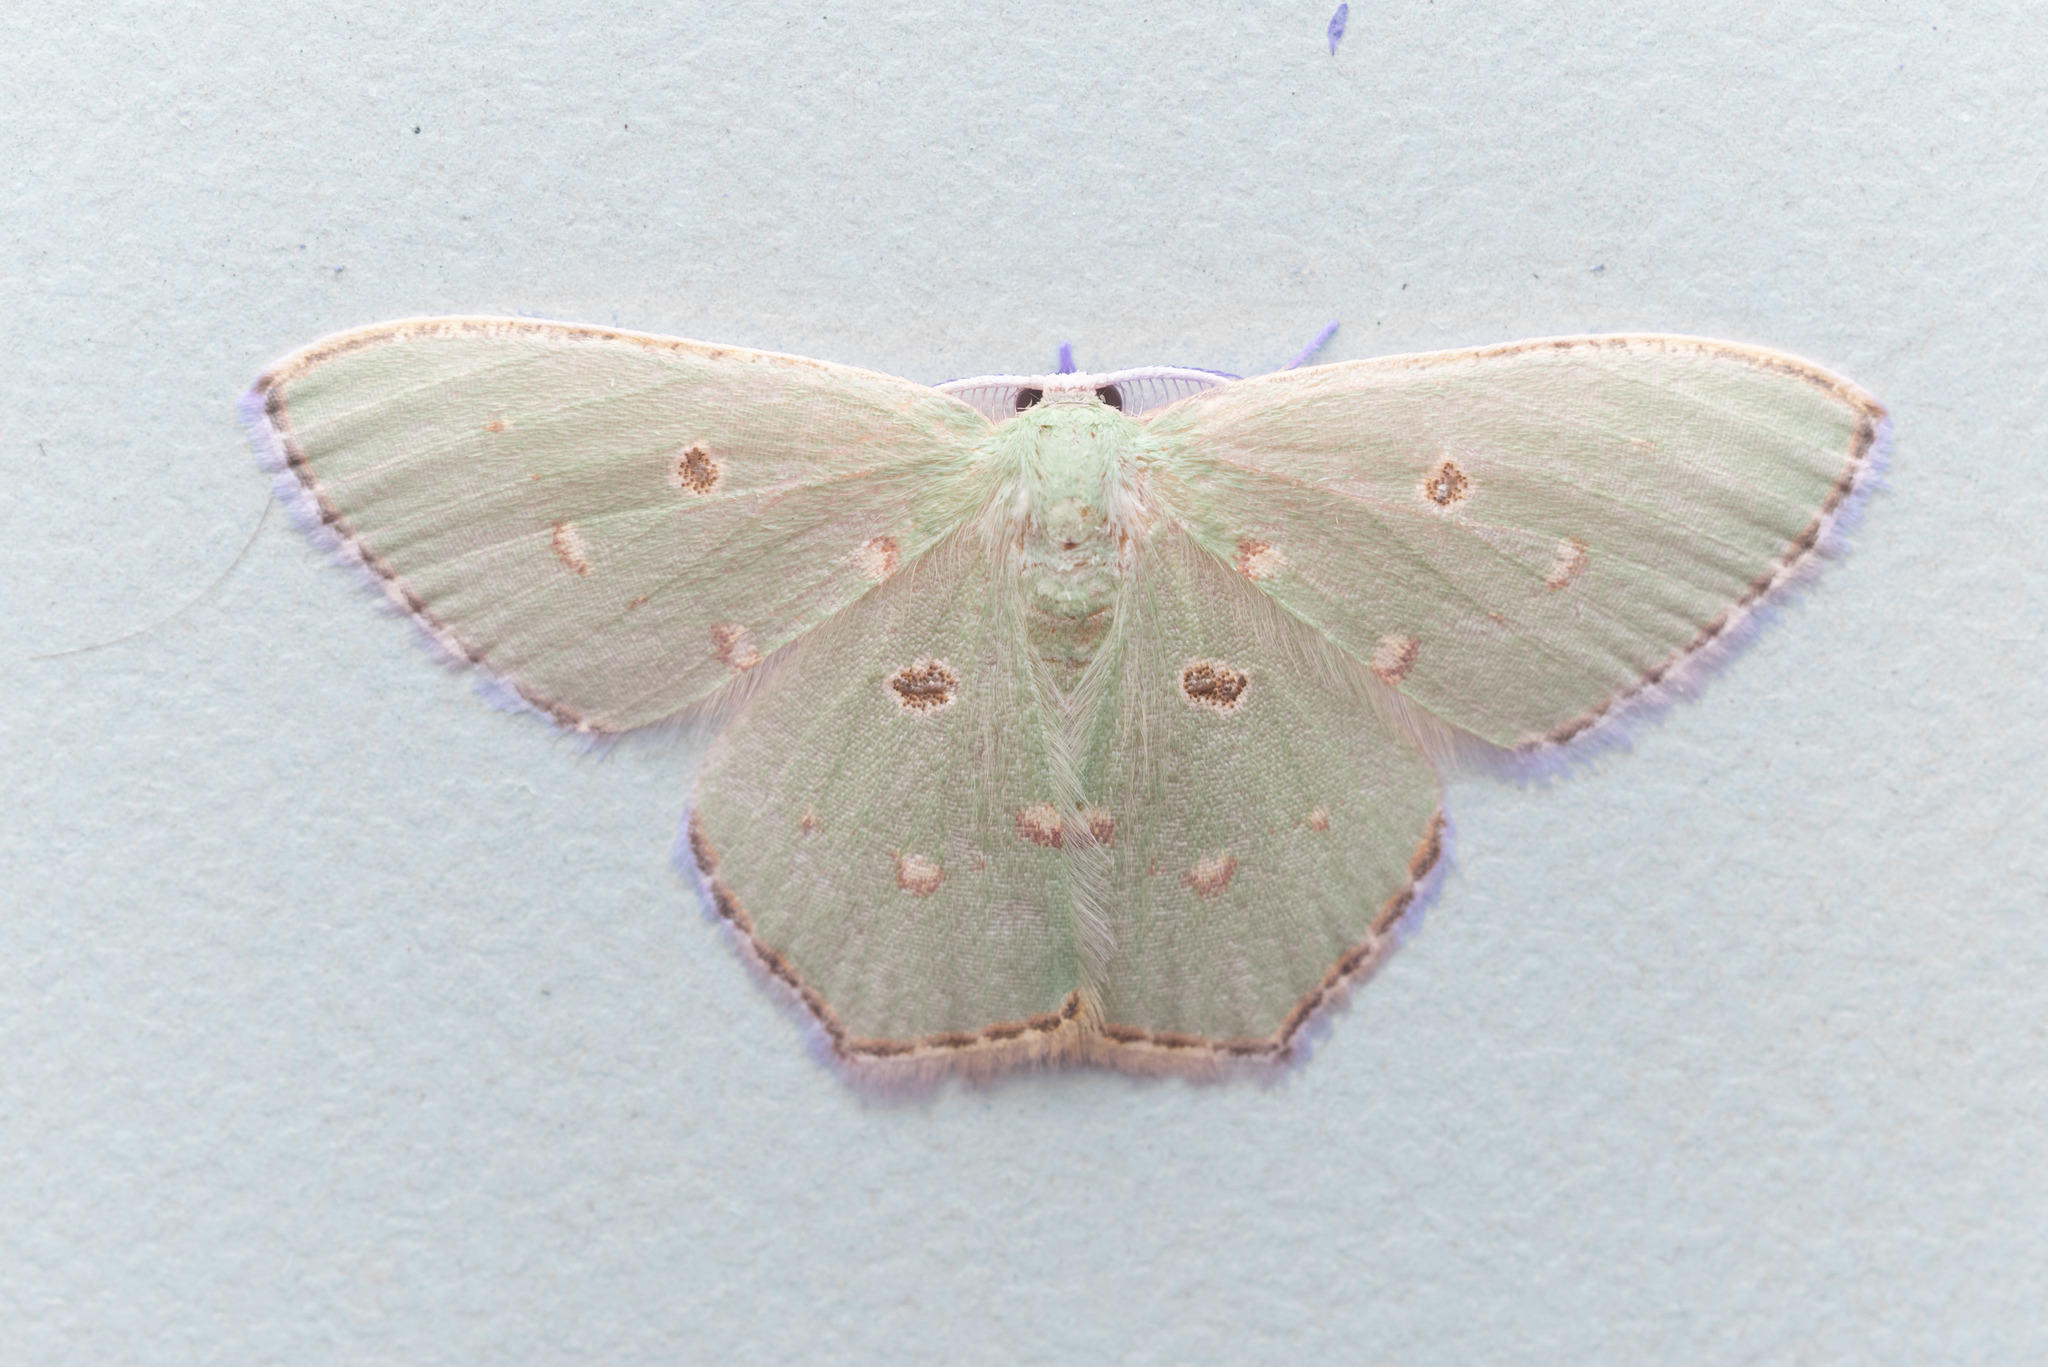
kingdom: Animalia
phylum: Arthropoda
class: Insecta
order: Lepidoptera
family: Geometridae
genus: Comostola
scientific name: Comostola meritaria
